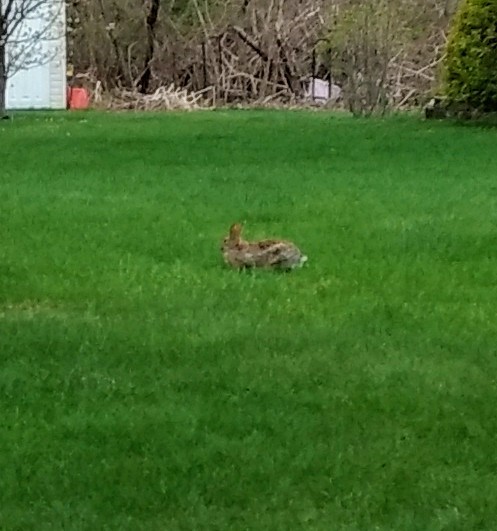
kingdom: Animalia
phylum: Chordata
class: Mammalia
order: Lagomorpha
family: Leporidae
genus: Sylvilagus
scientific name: Sylvilagus floridanus
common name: Eastern cottontail
